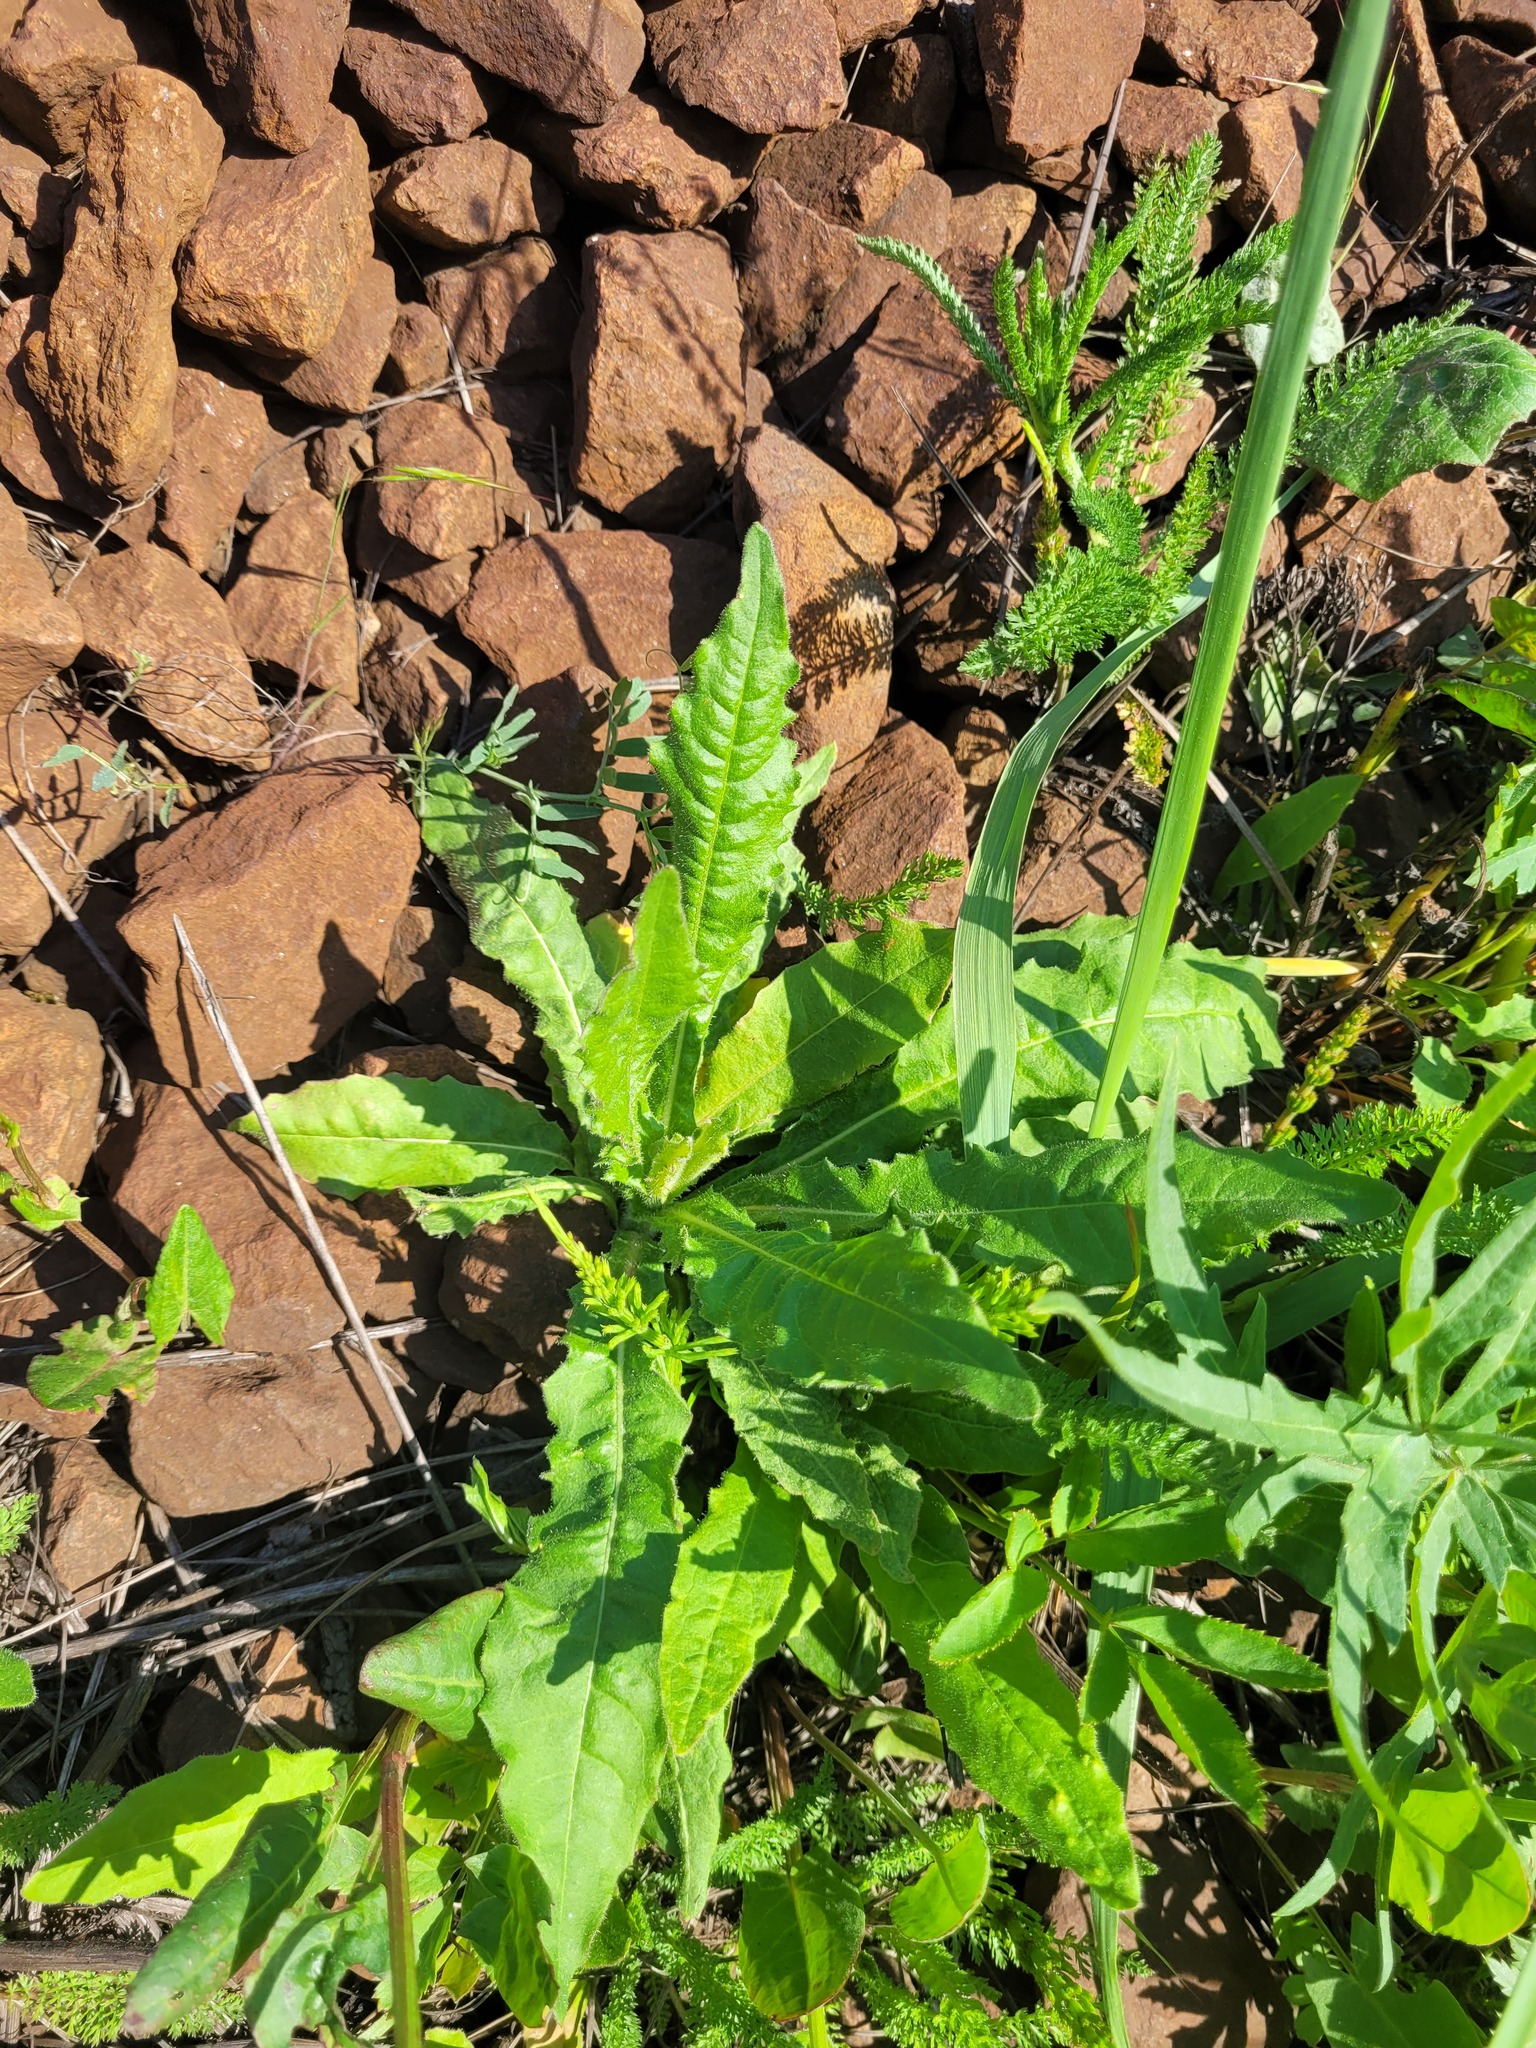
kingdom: Plantae
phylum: Tracheophyta
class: Magnoliopsida
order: Asterales
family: Asteraceae
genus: Picris
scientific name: Picris hieracioides
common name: Hawkweed oxtongue
